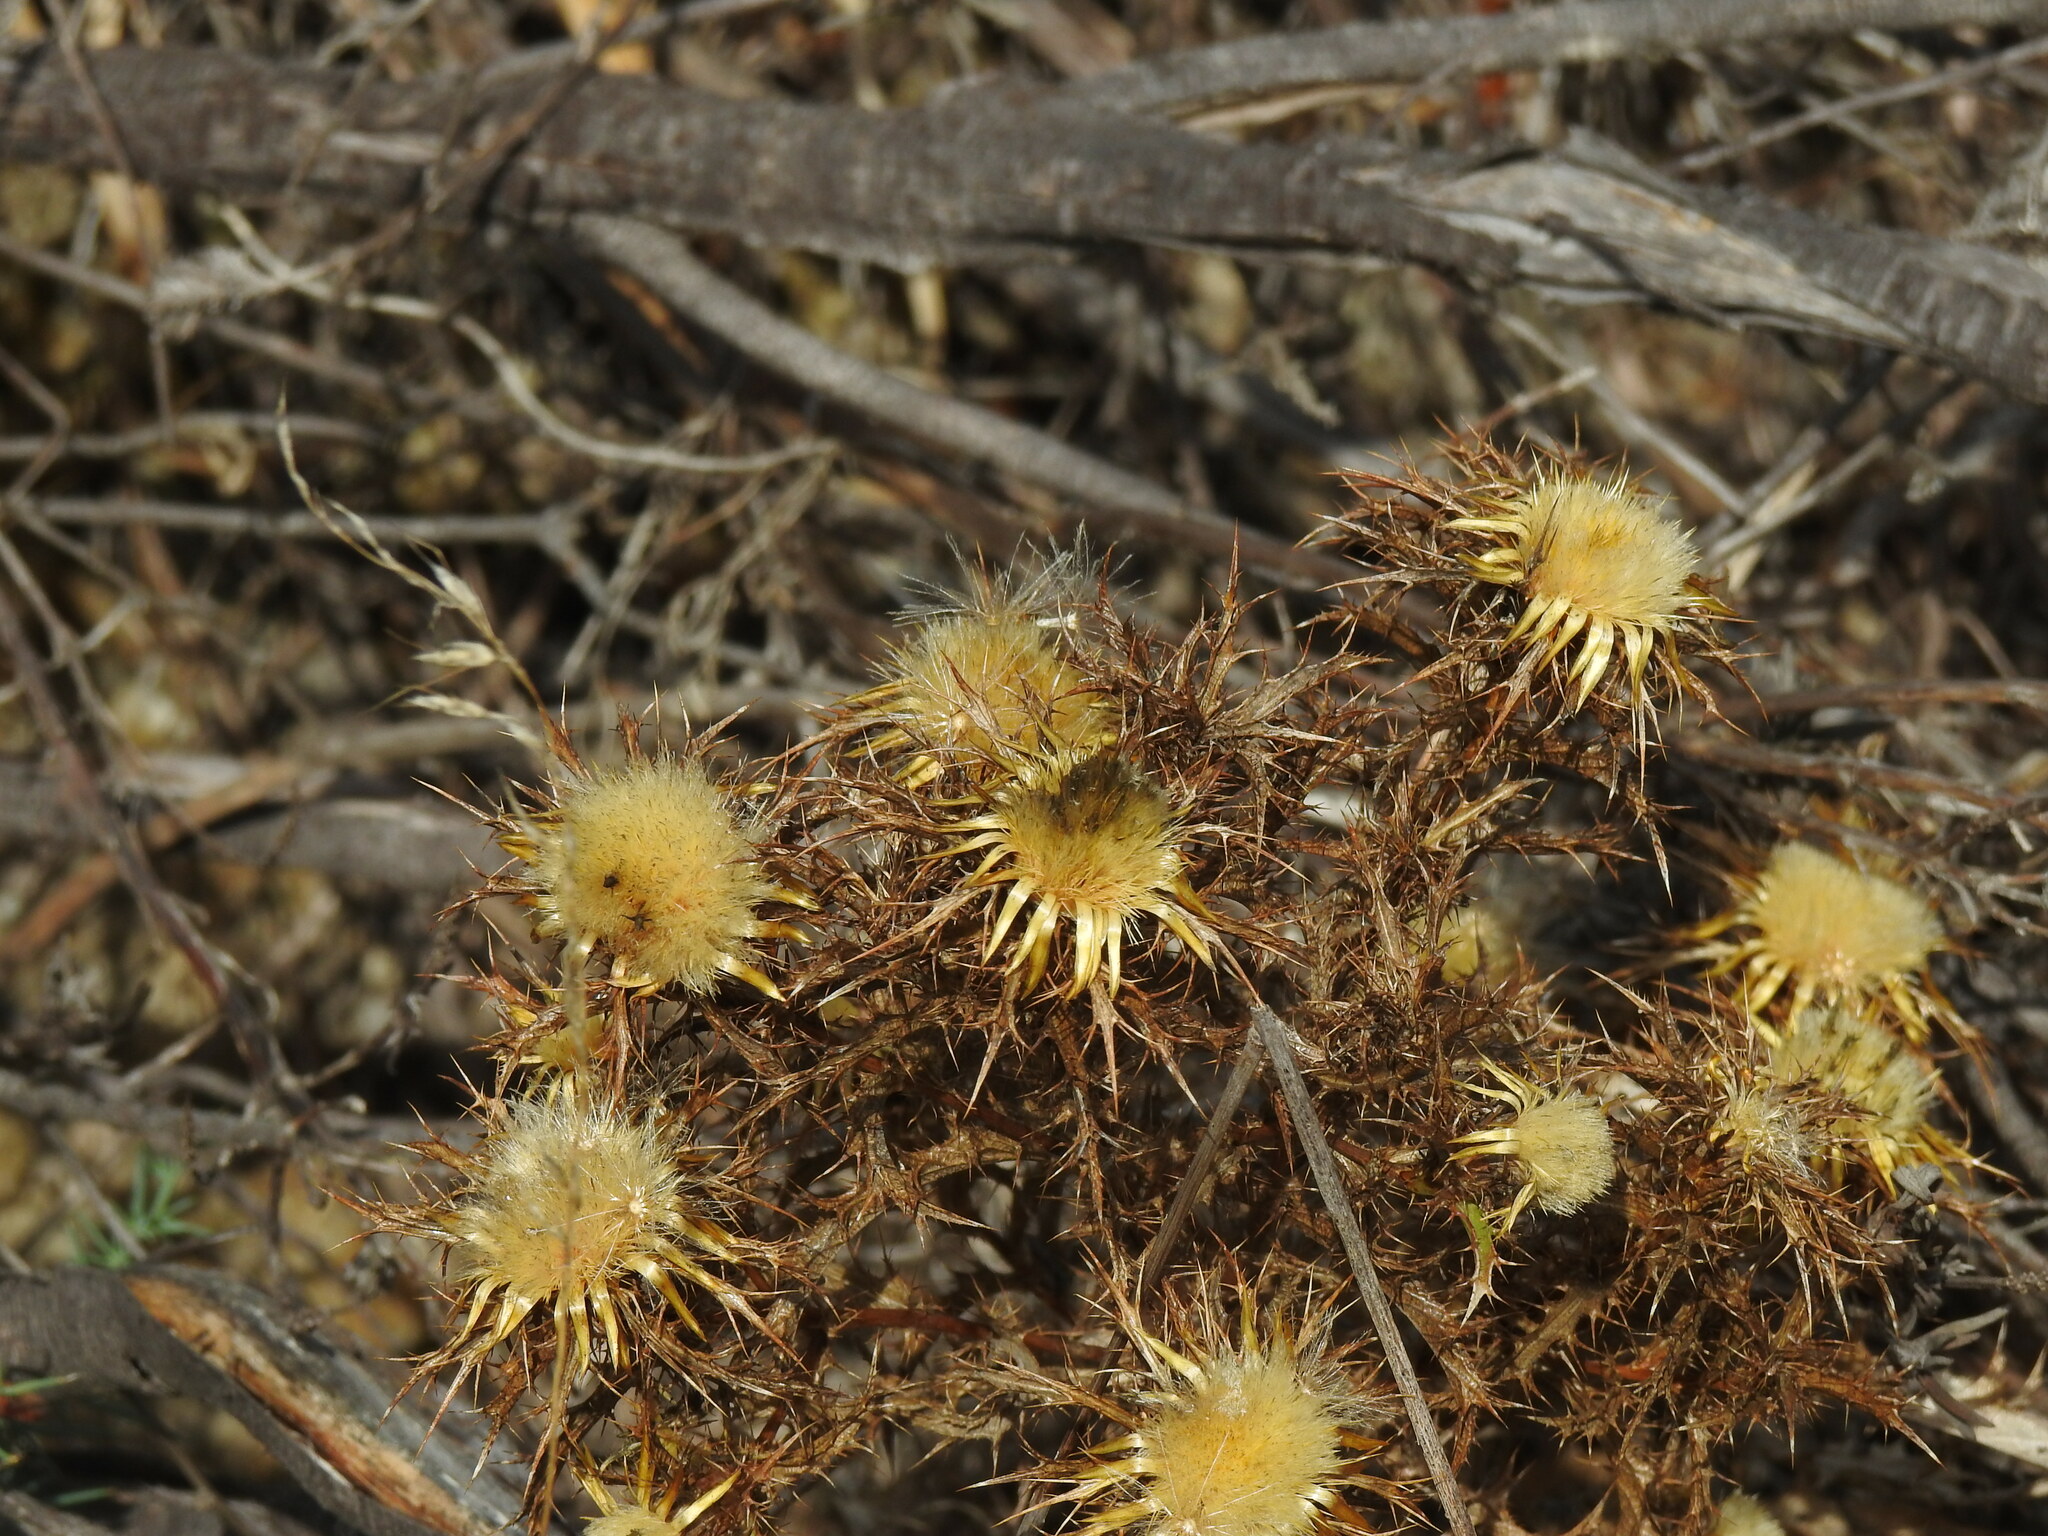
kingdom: Plantae
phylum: Tracheophyta
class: Magnoliopsida
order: Asterales
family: Asteraceae
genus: Carlina
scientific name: Carlina hispanica
